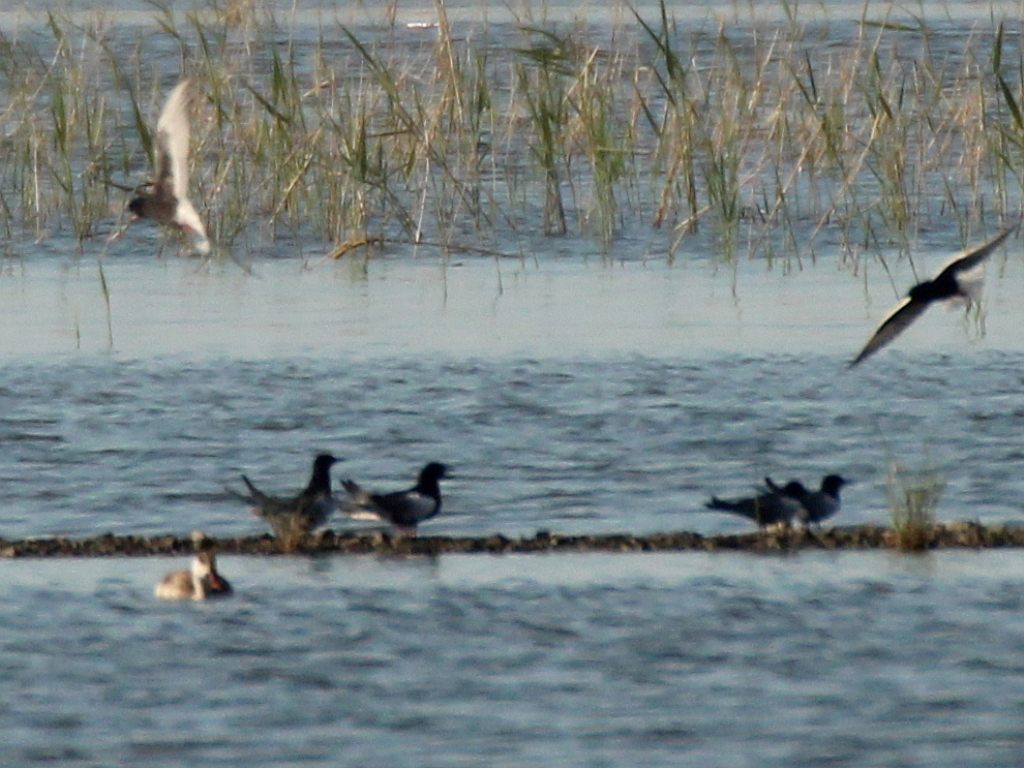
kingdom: Animalia
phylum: Chordata
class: Aves
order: Charadriiformes
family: Laridae
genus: Chlidonias
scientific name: Chlidonias leucopterus
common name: White-winged tern
